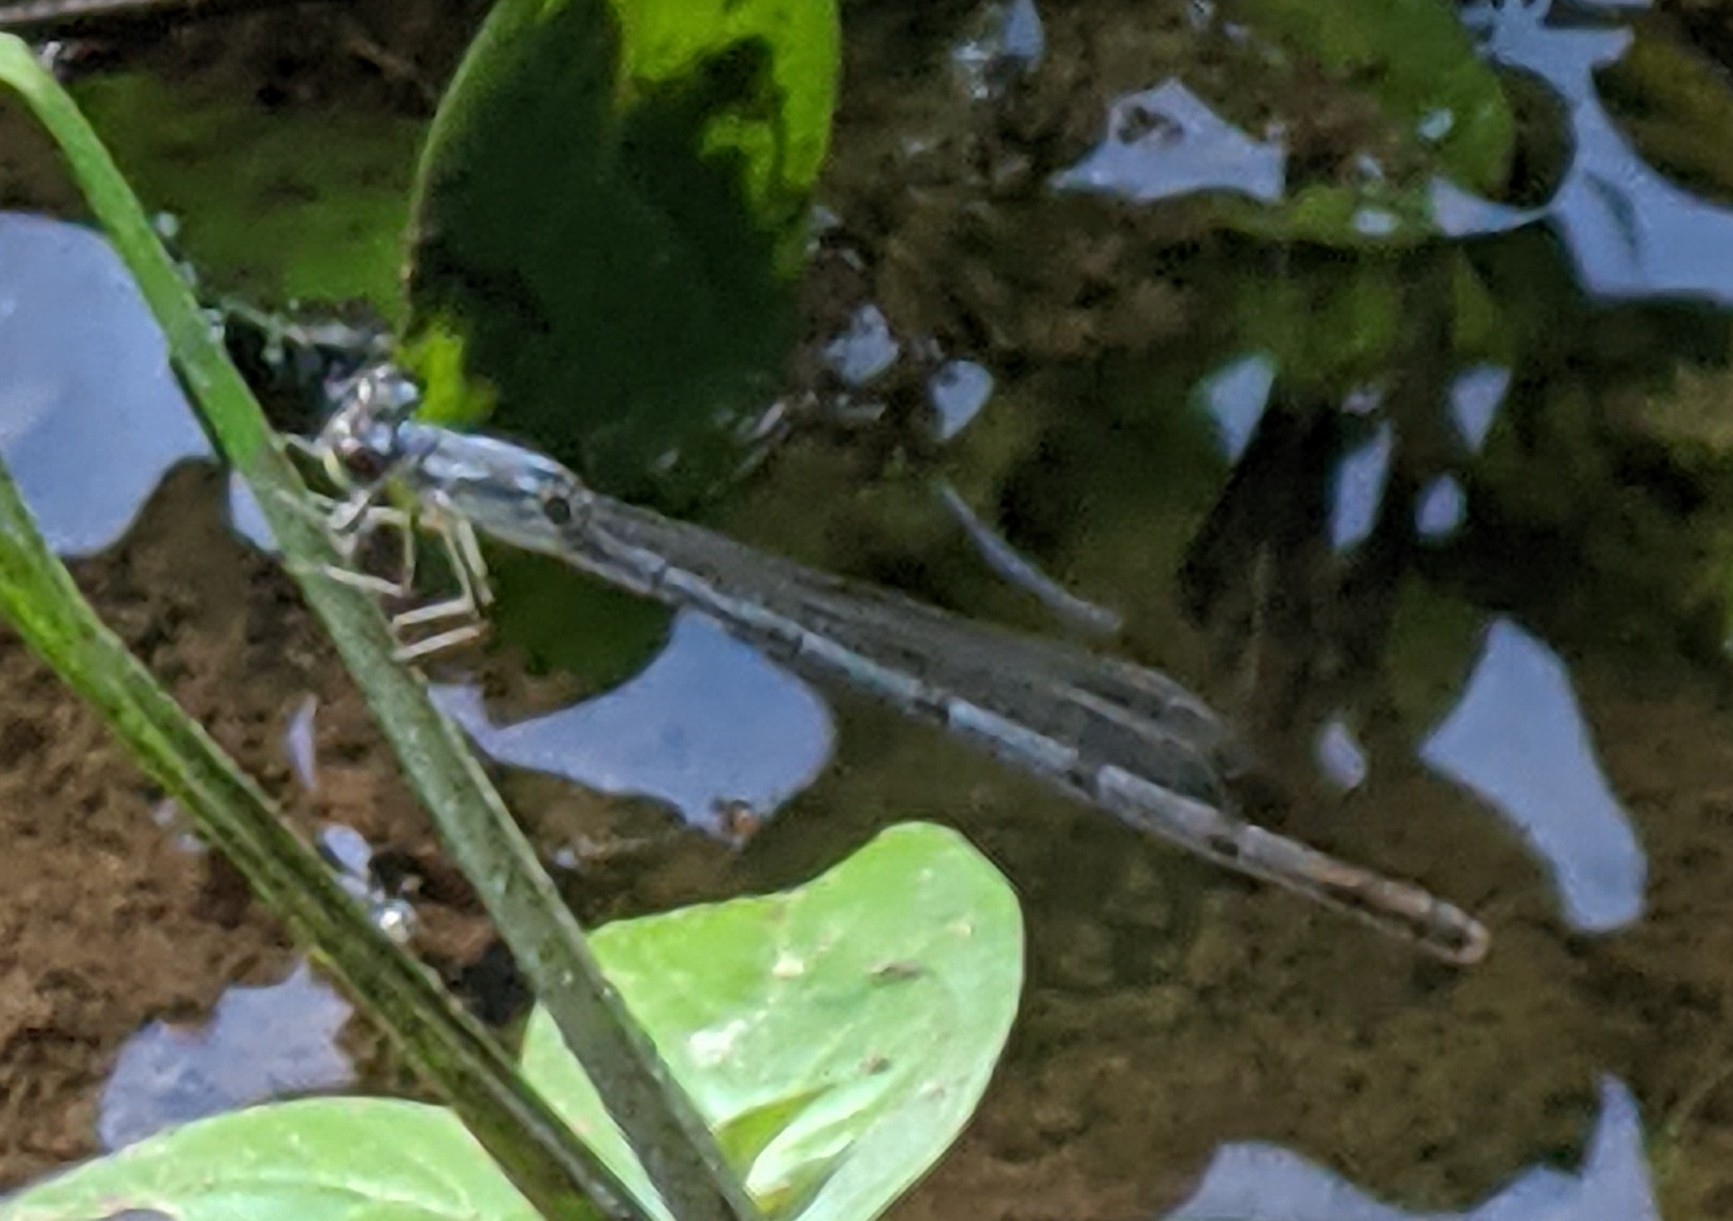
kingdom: Animalia
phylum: Arthropoda
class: Insecta
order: Odonata
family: Coenagrionidae
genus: Ischnura
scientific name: Ischnura posita
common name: Fragile forktail
